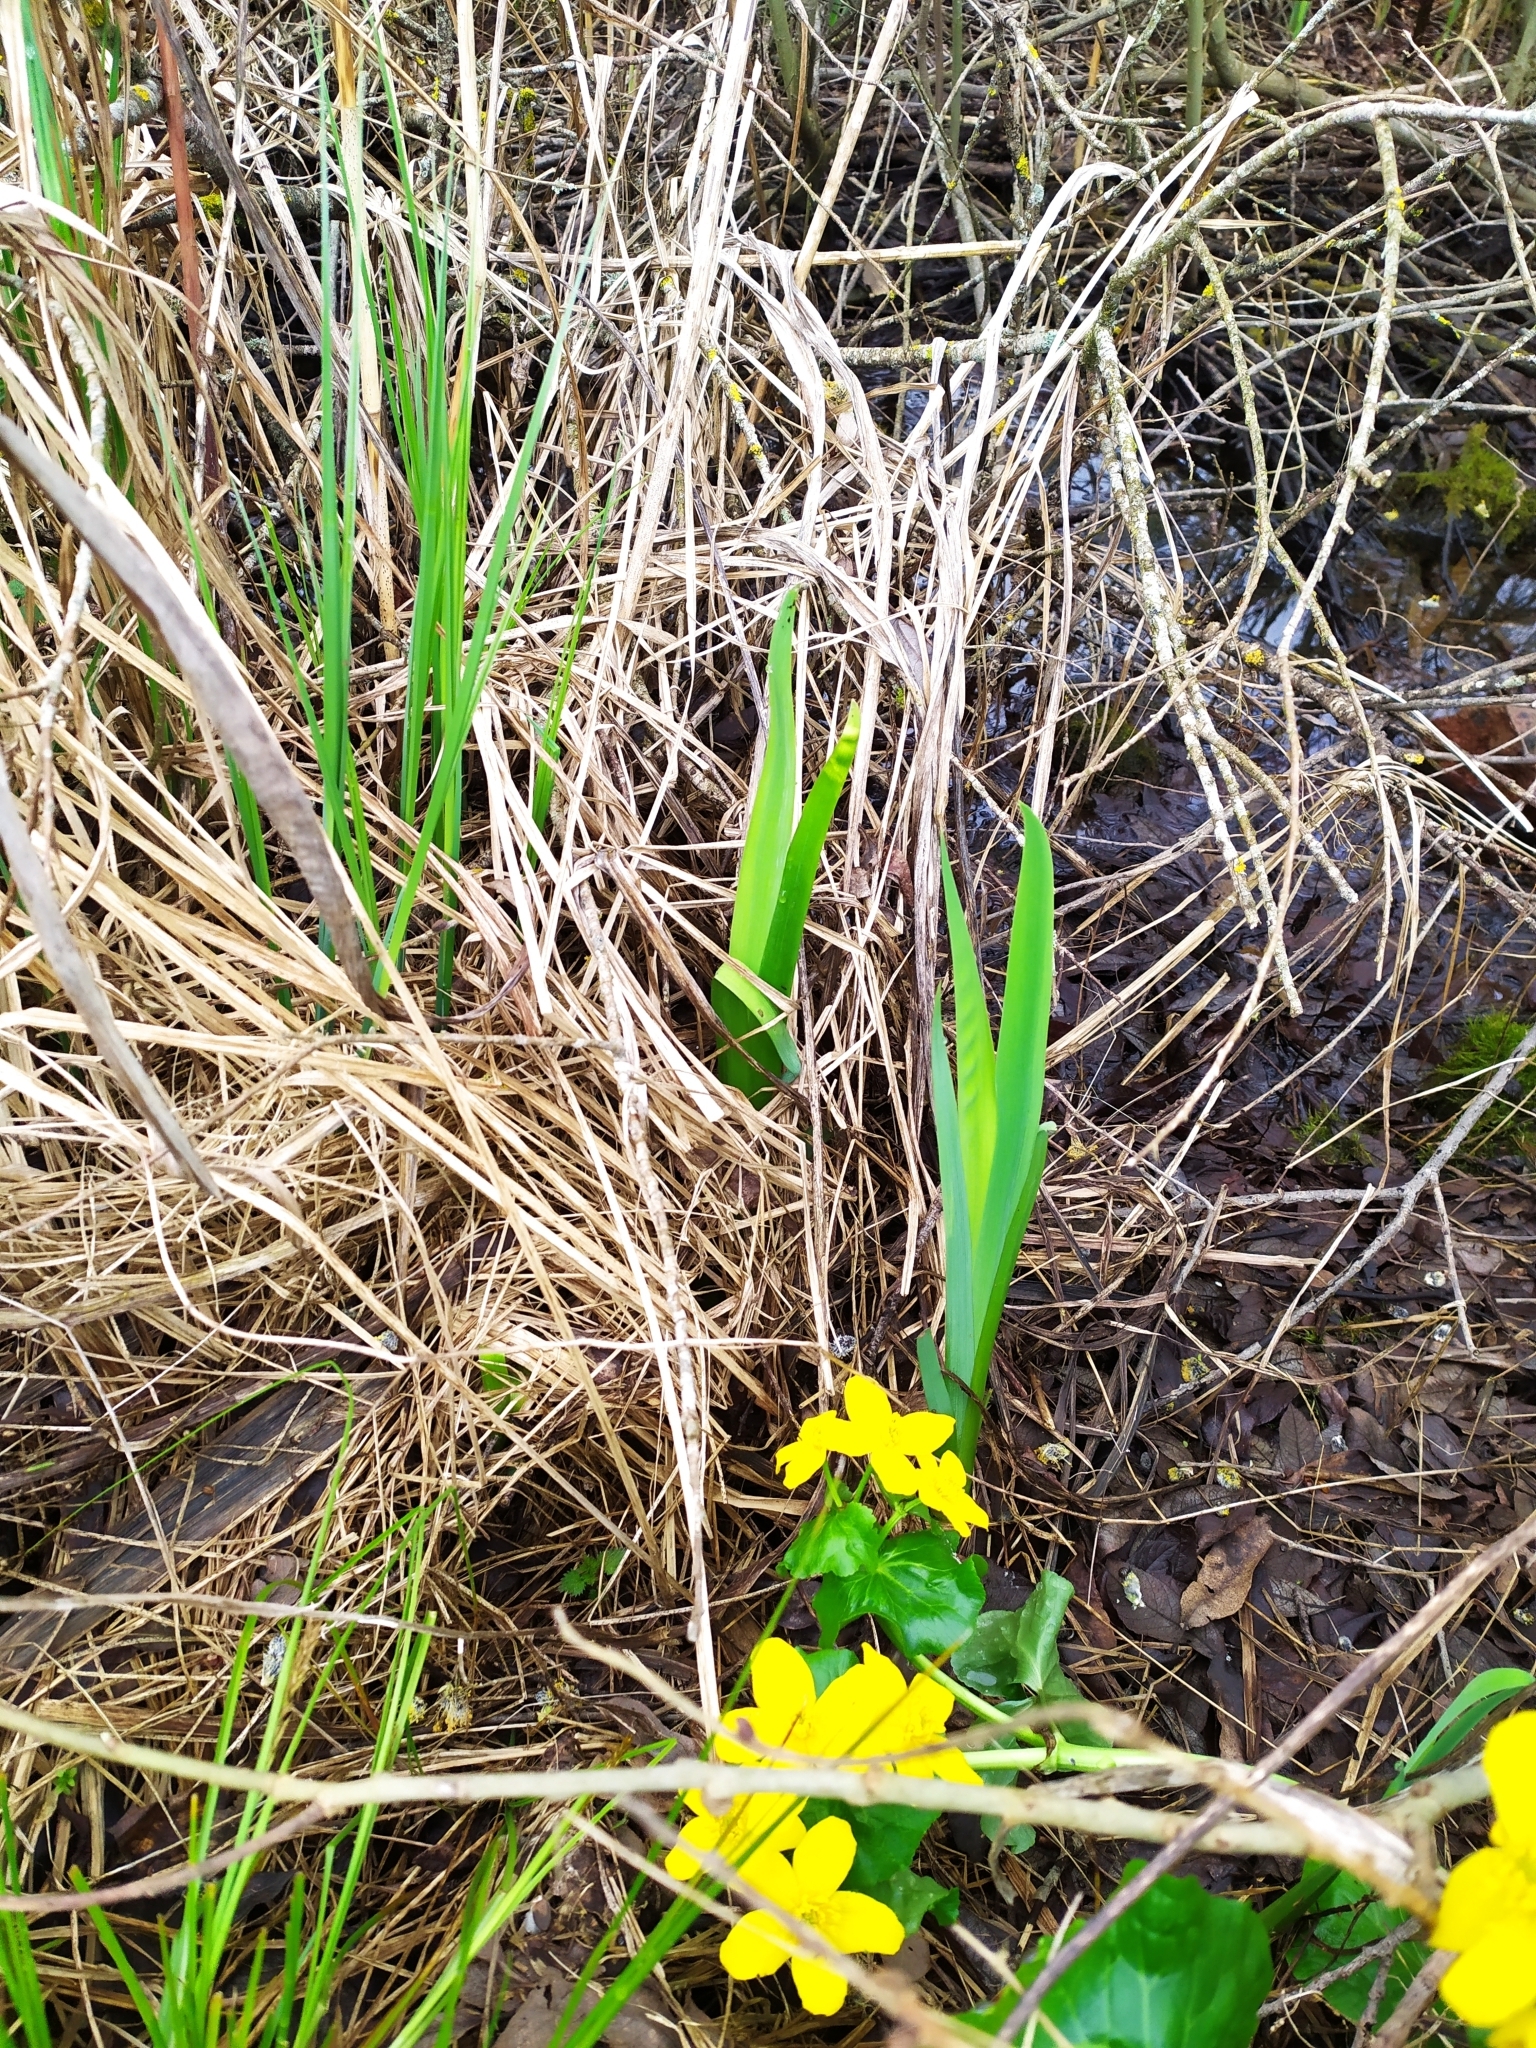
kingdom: Plantae
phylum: Tracheophyta
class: Liliopsida
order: Asparagales
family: Iridaceae
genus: Iris
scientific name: Iris pseudacorus
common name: Yellow flag
